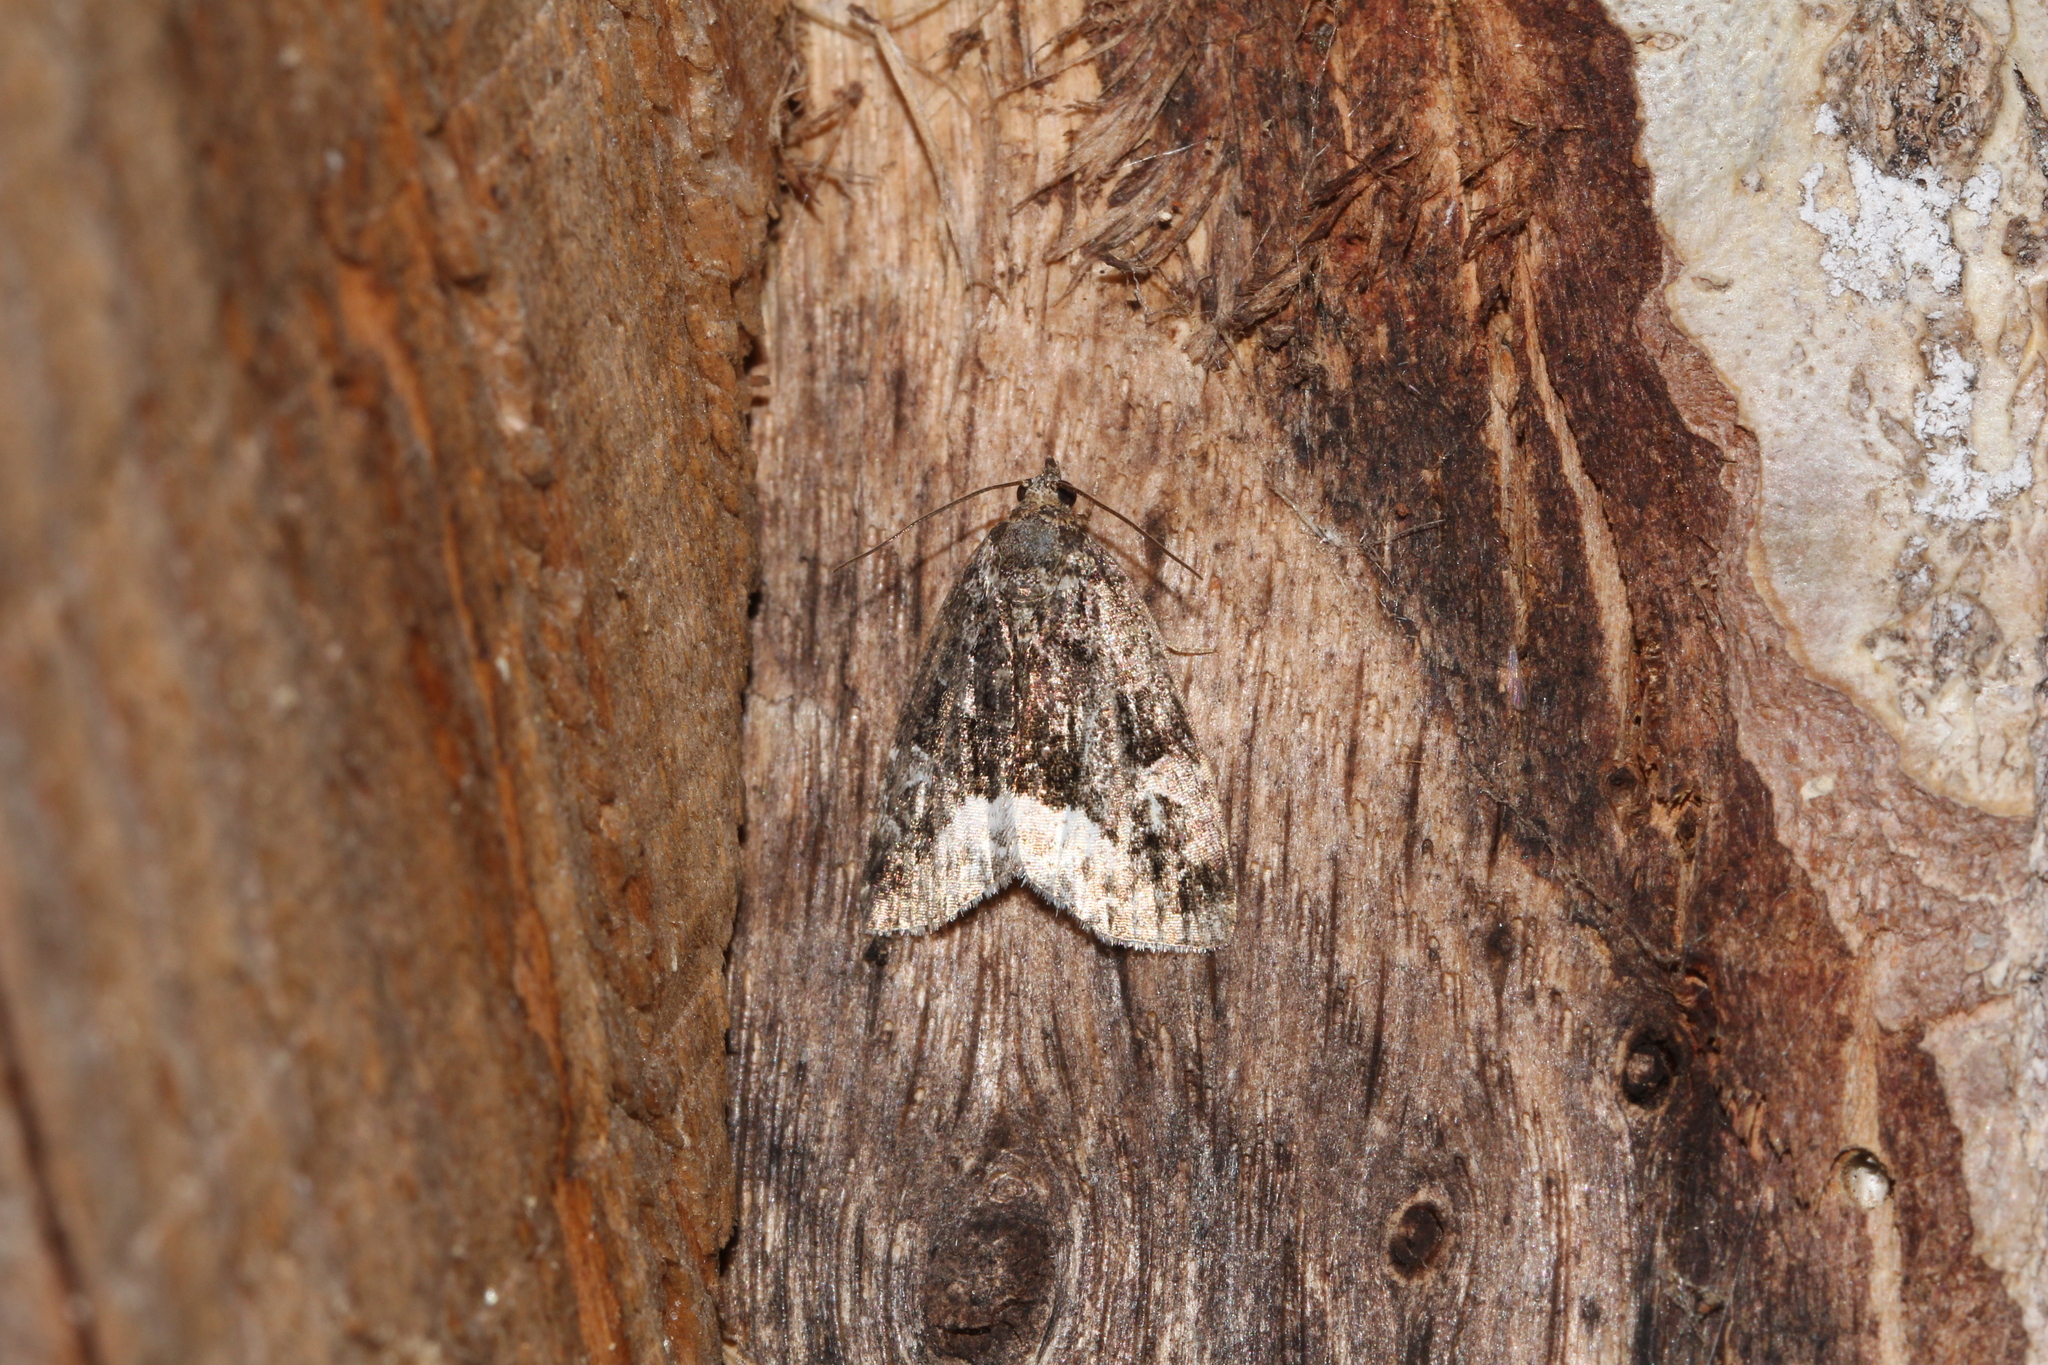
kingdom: Animalia
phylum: Arthropoda
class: Insecta
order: Lepidoptera
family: Noctuidae
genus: Deltote
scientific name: Deltote pygarga
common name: Marbled white spot
